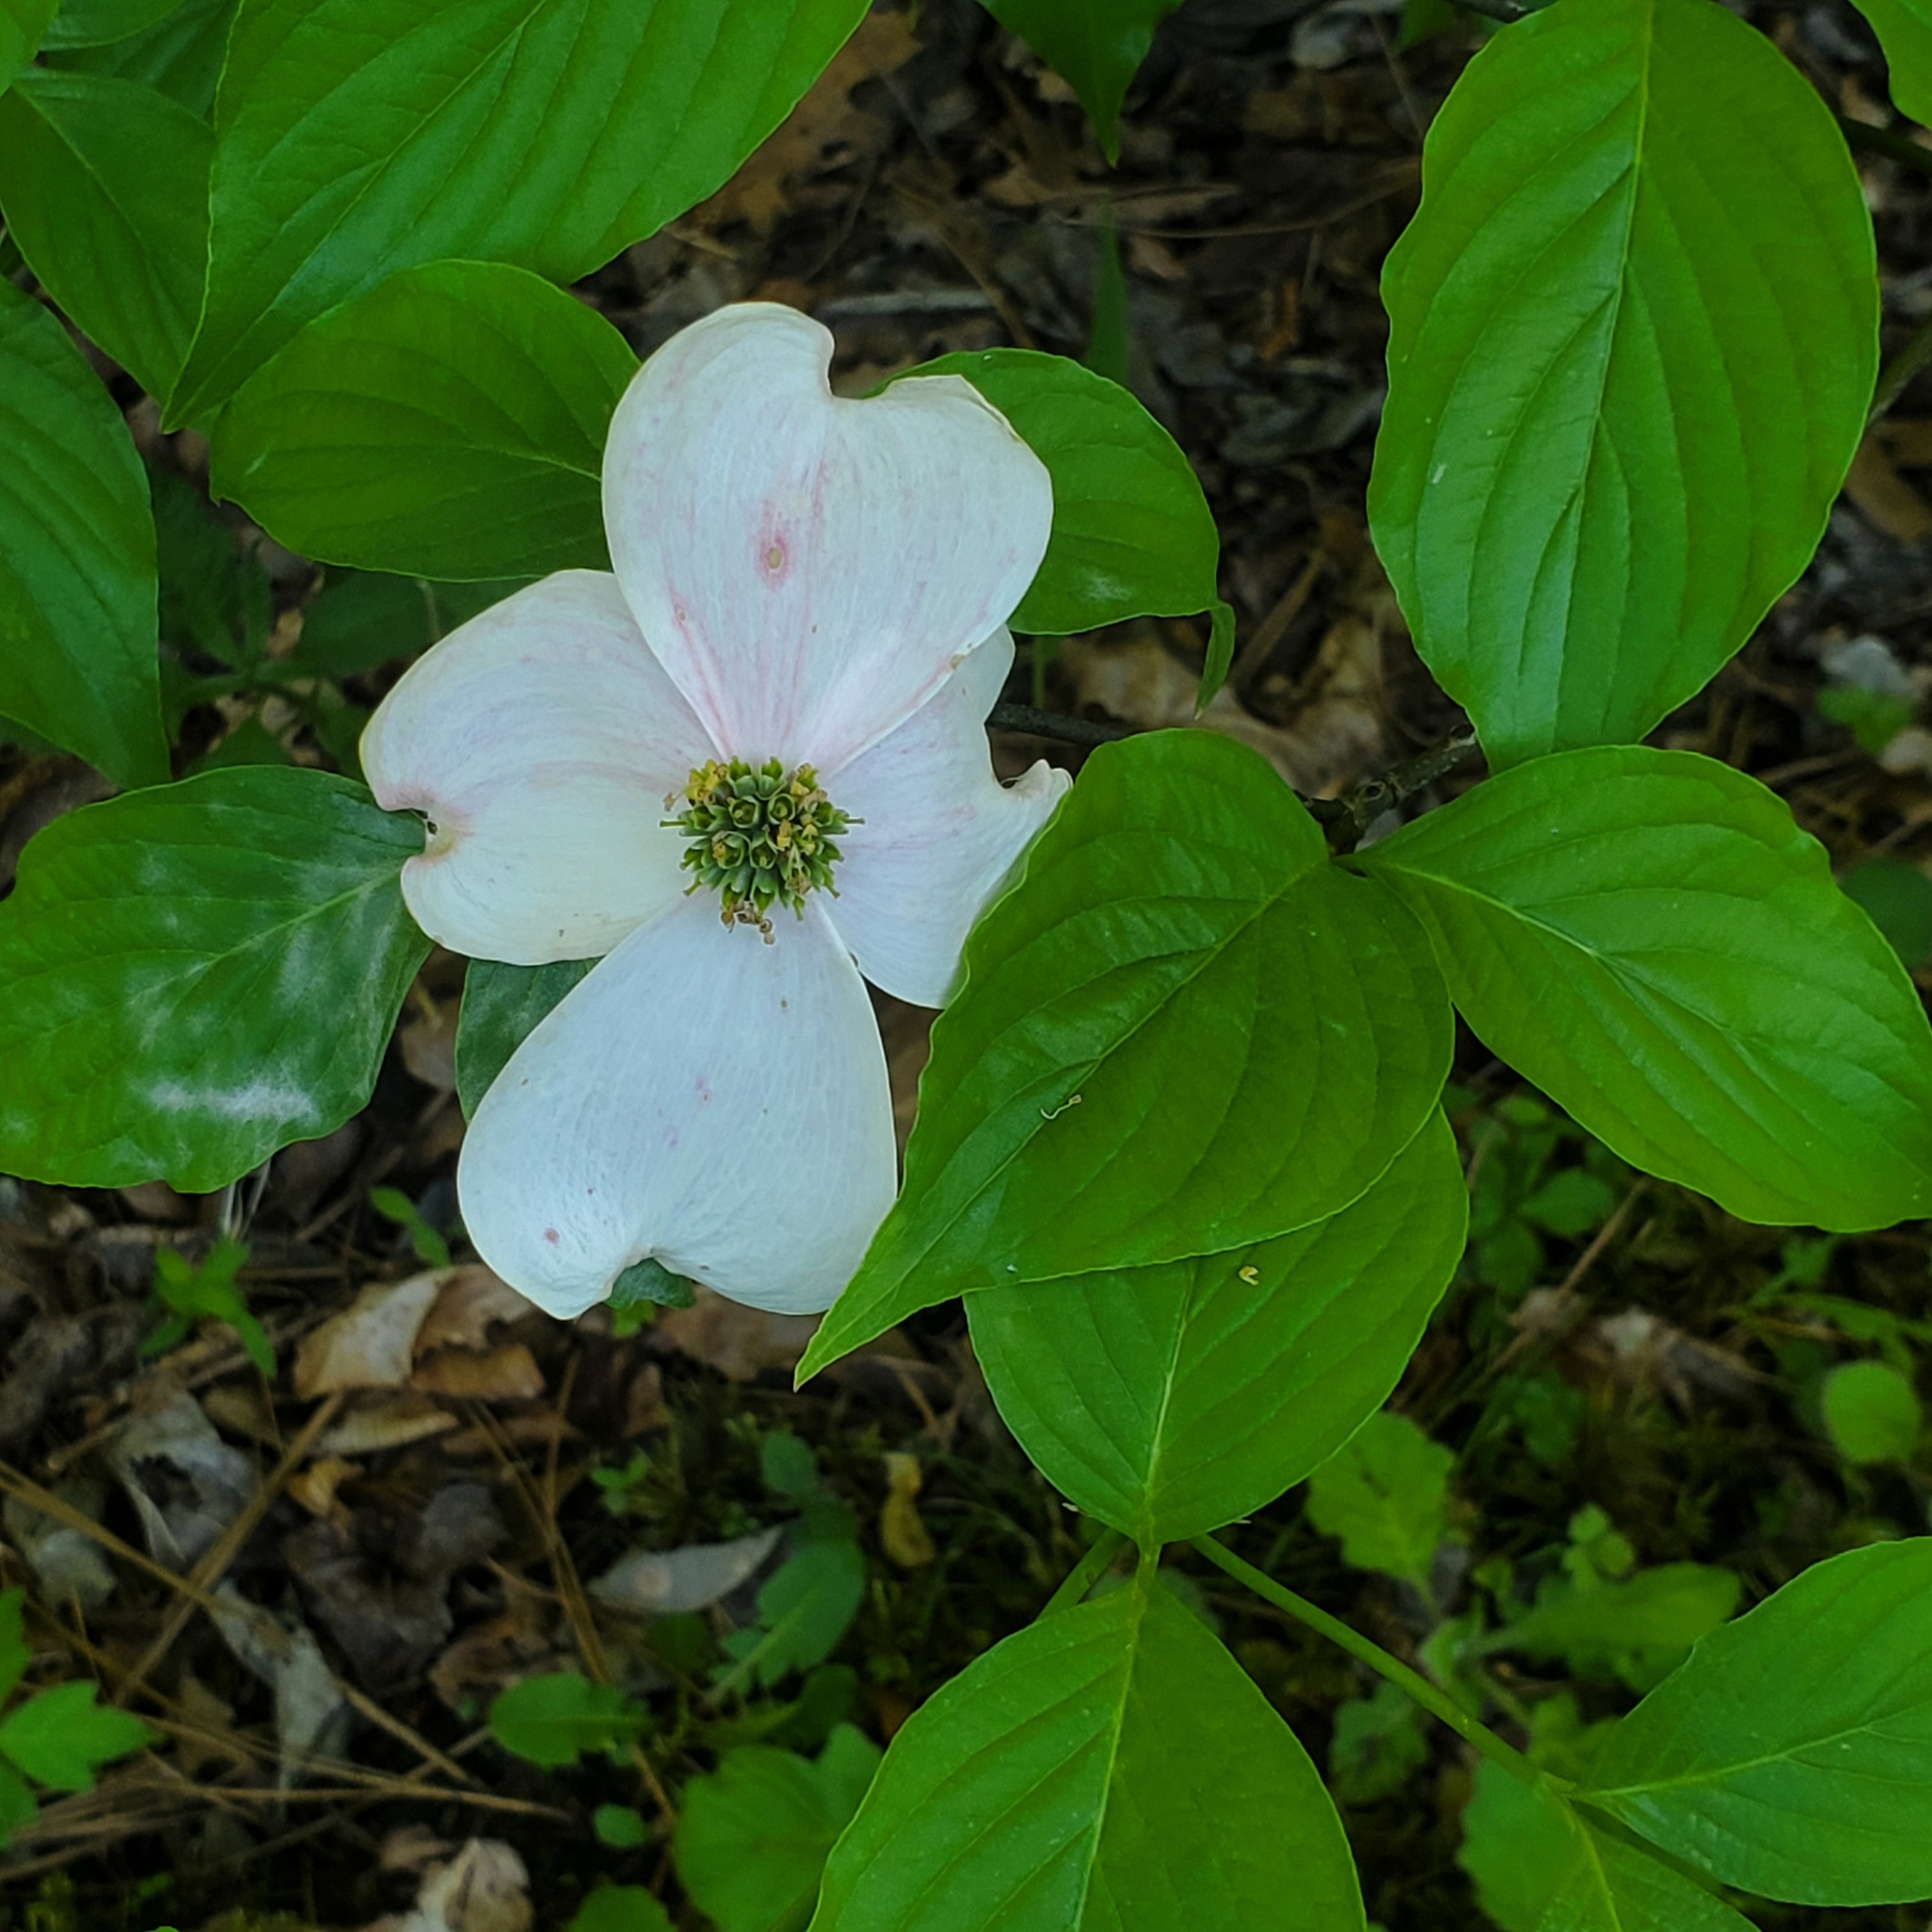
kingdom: Plantae
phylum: Tracheophyta
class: Magnoliopsida
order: Cornales
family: Cornaceae
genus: Cornus
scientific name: Cornus florida
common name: Flowering dogwood
